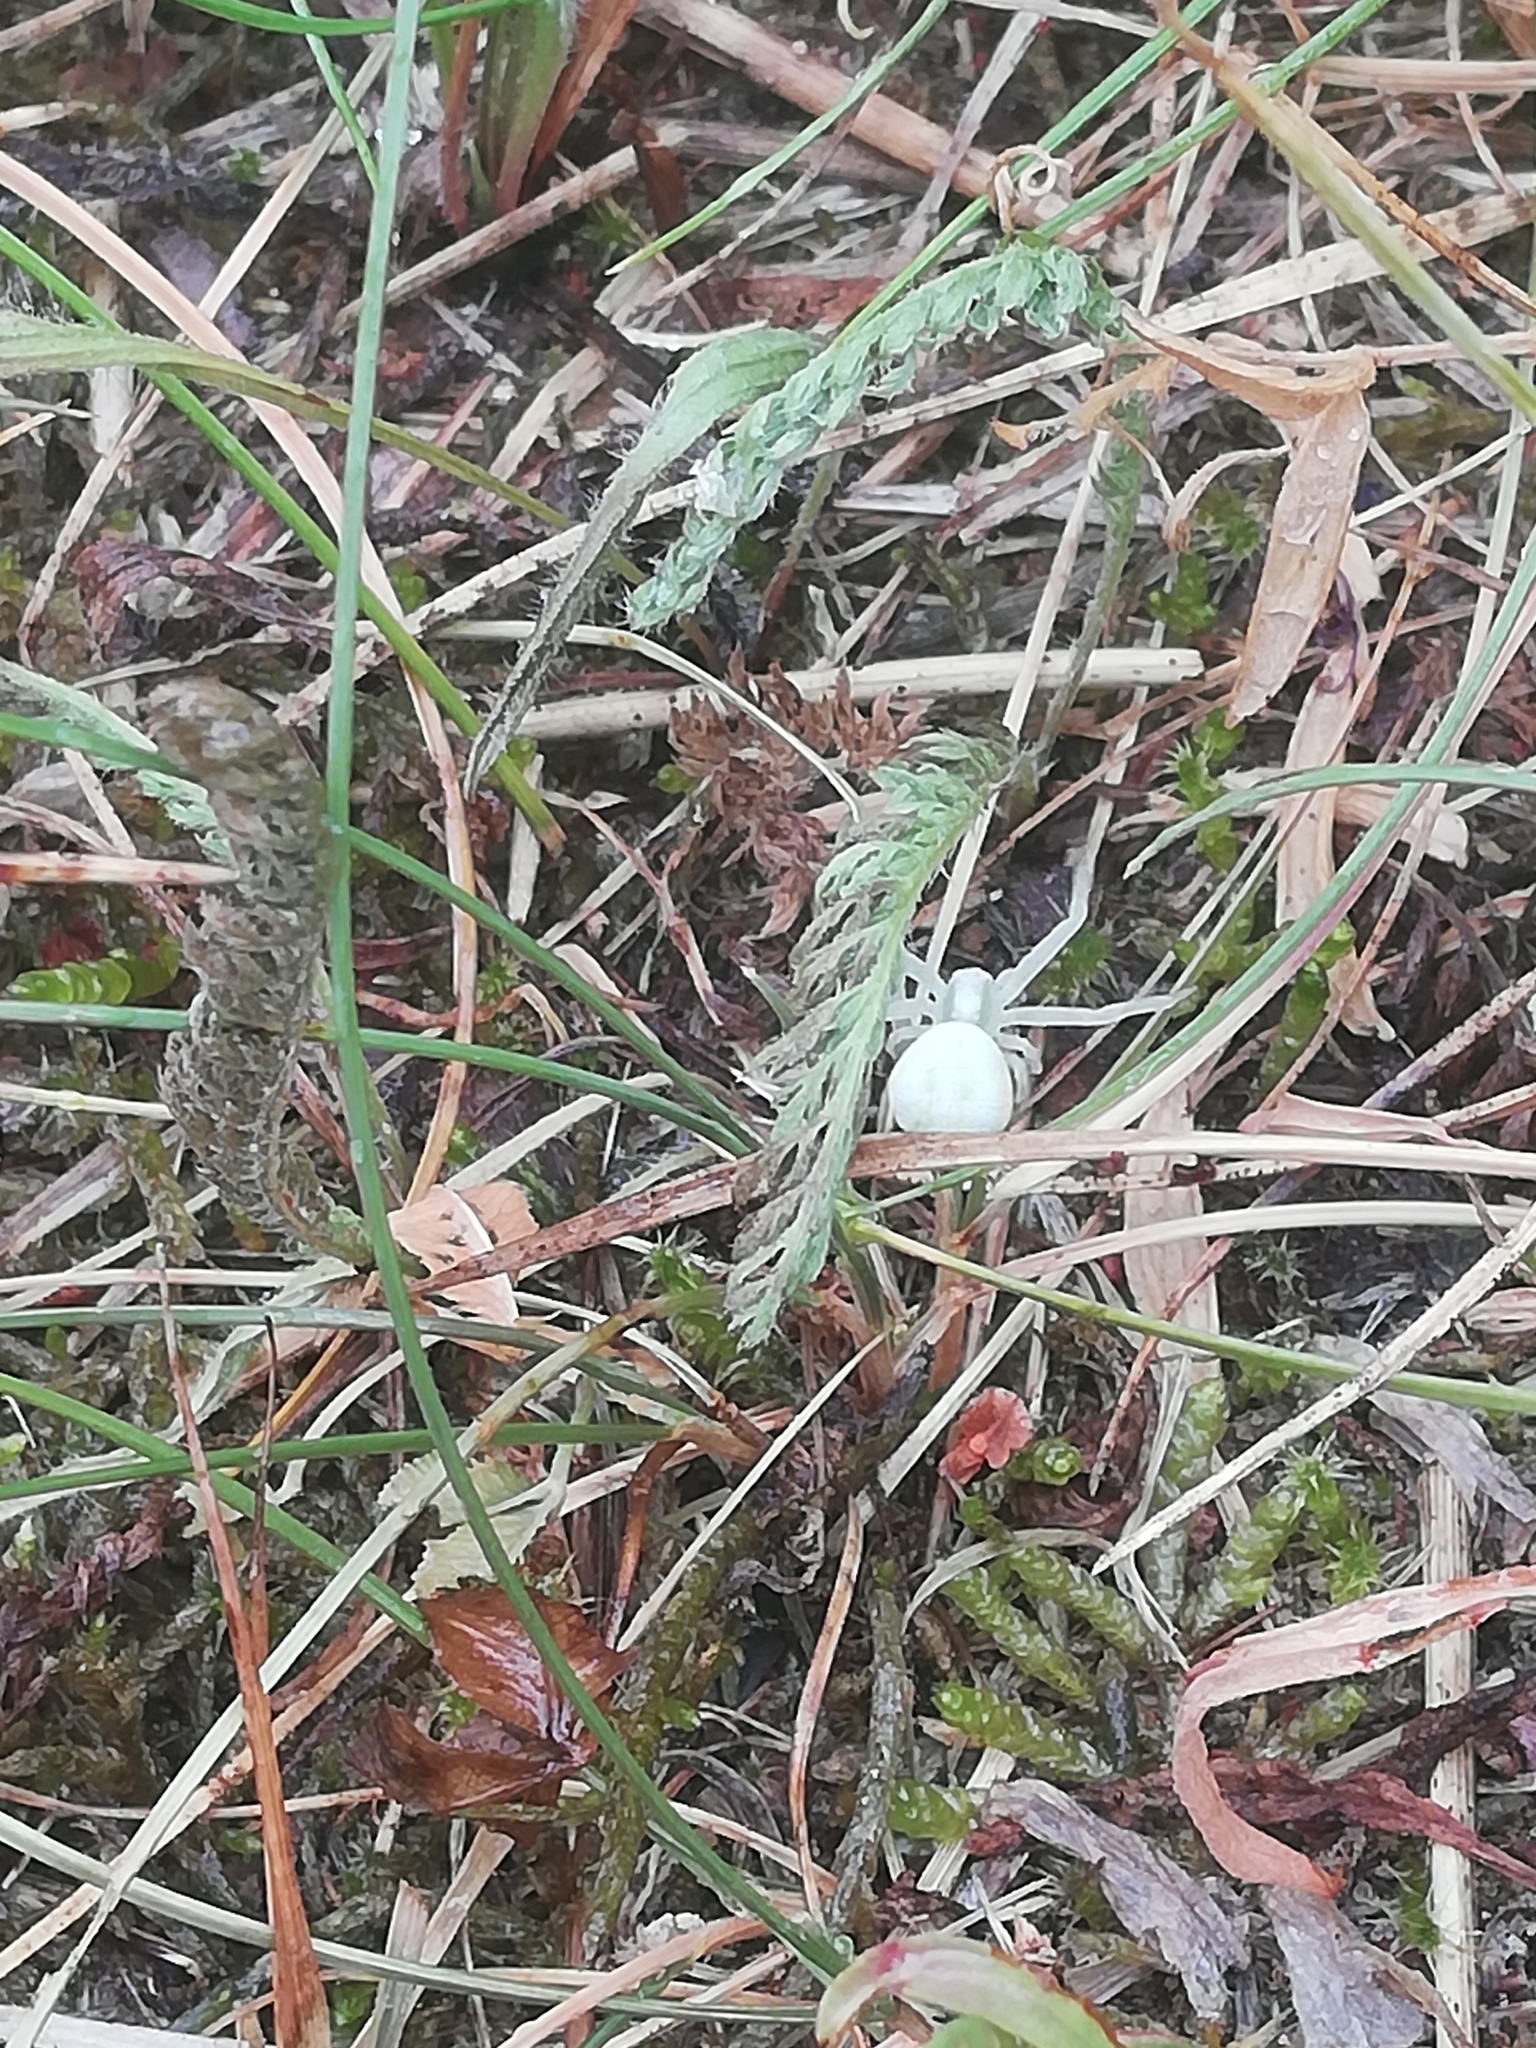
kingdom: Animalia
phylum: Arthropoda
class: Arachnida
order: Araneae
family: Thomisidae
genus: Misumena
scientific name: Misumena vatia
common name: Goldenrod crab spider
